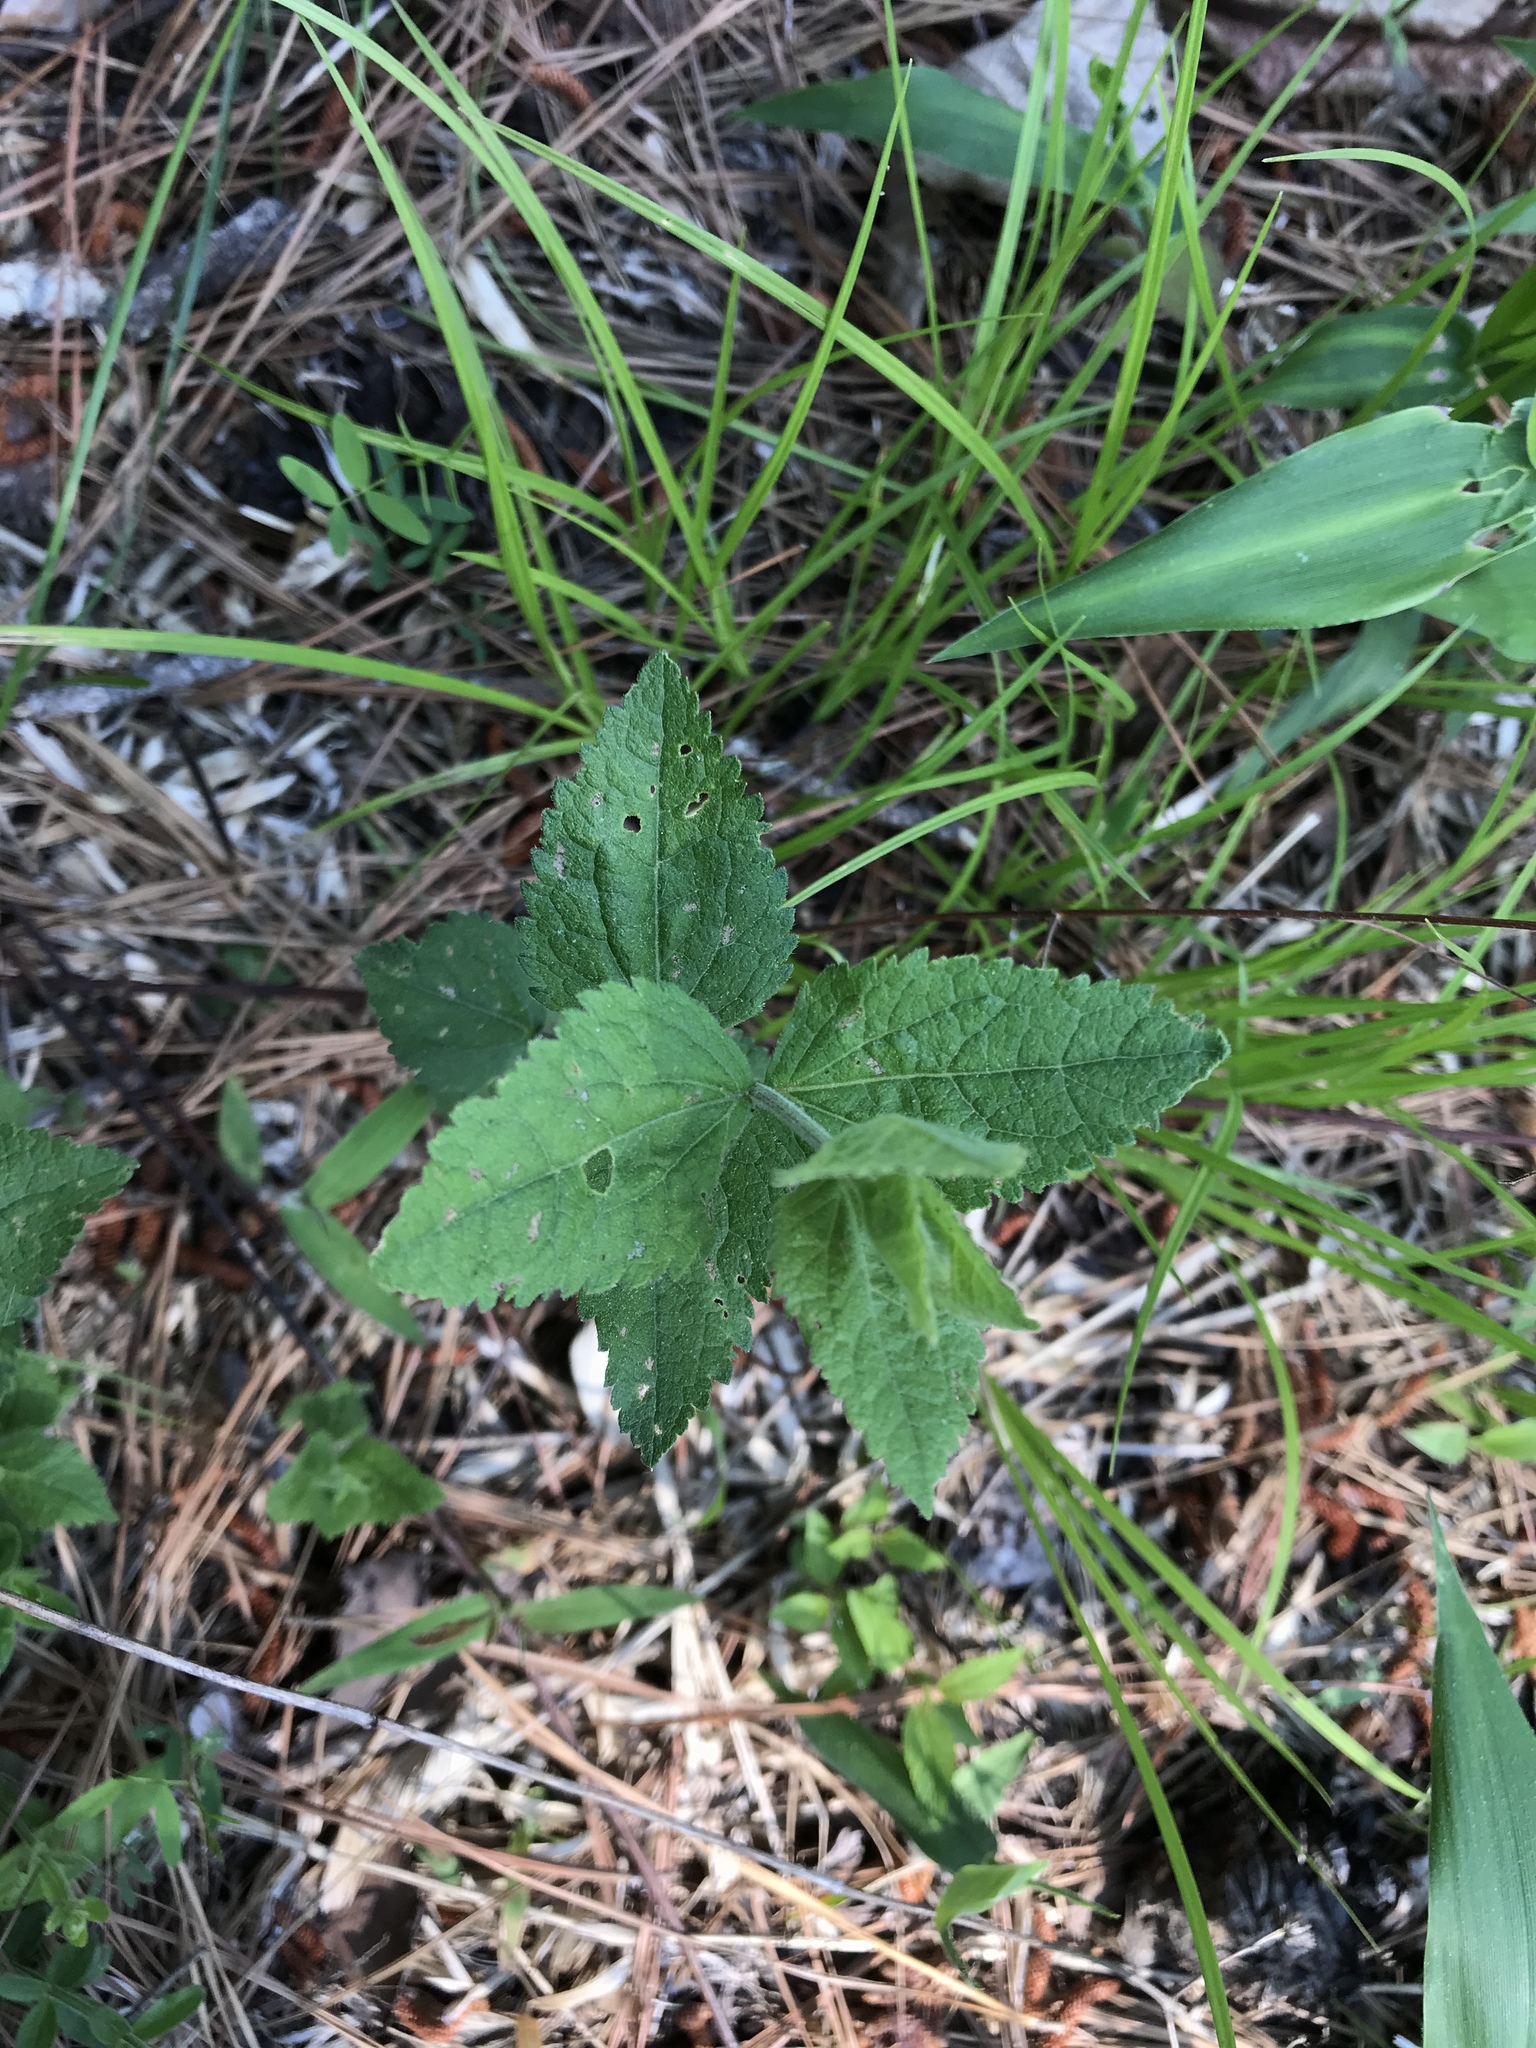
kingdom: Plantae
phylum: Tracheophyta
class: Magnoliopsida
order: Asterales
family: Asteraceae
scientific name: Asteraceae
